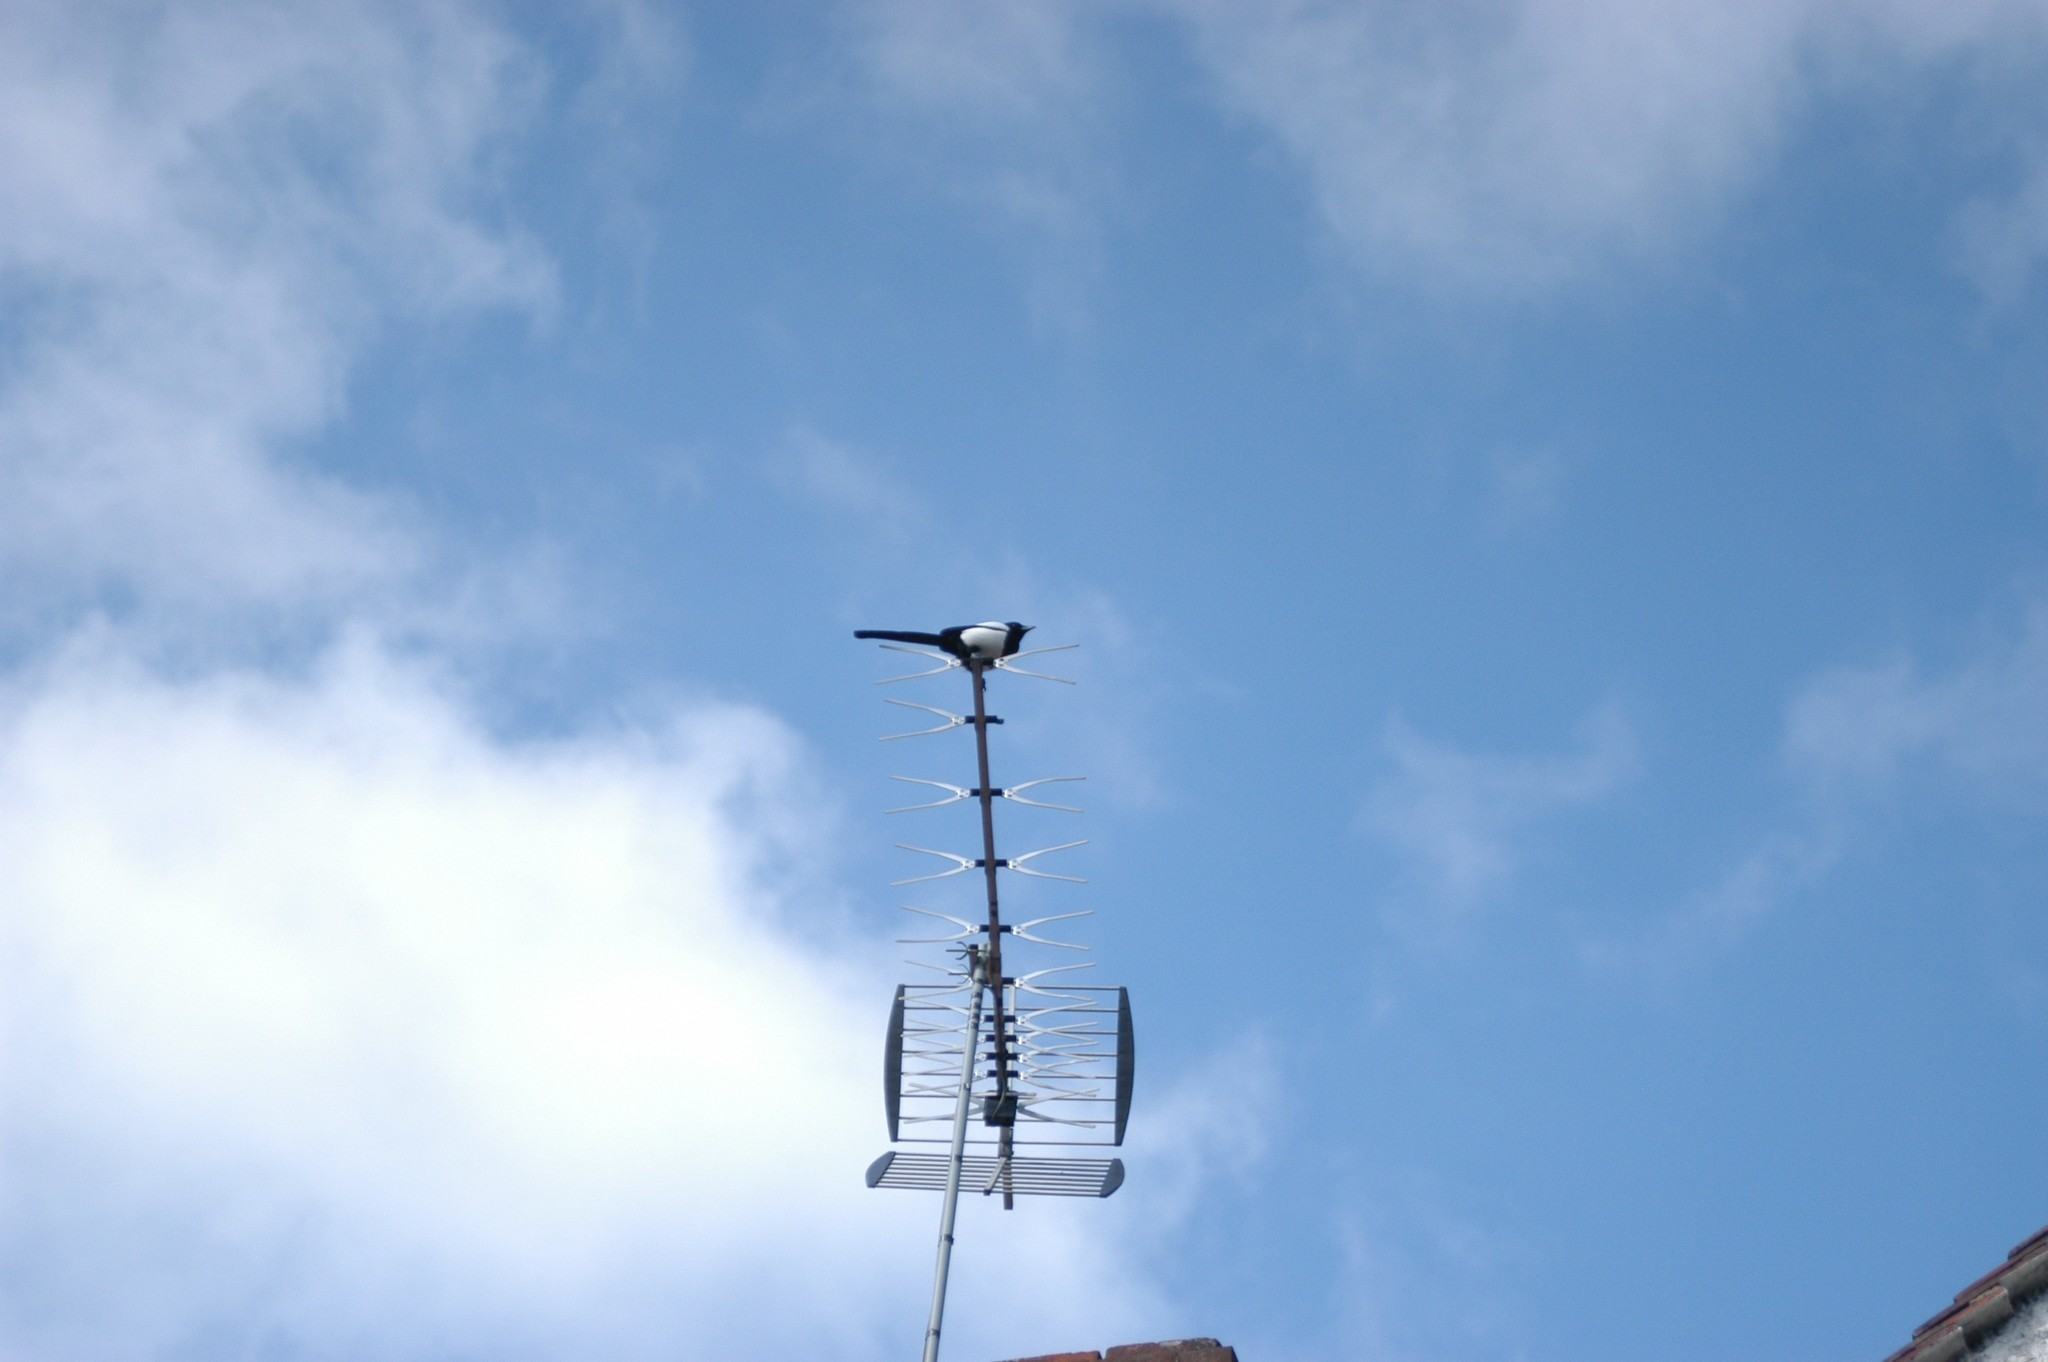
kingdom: Animalia
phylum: Chordata
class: Aves
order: Passeriformes
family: Corvidae
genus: Pica
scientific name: Pica pica
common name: Eurasian magpie
